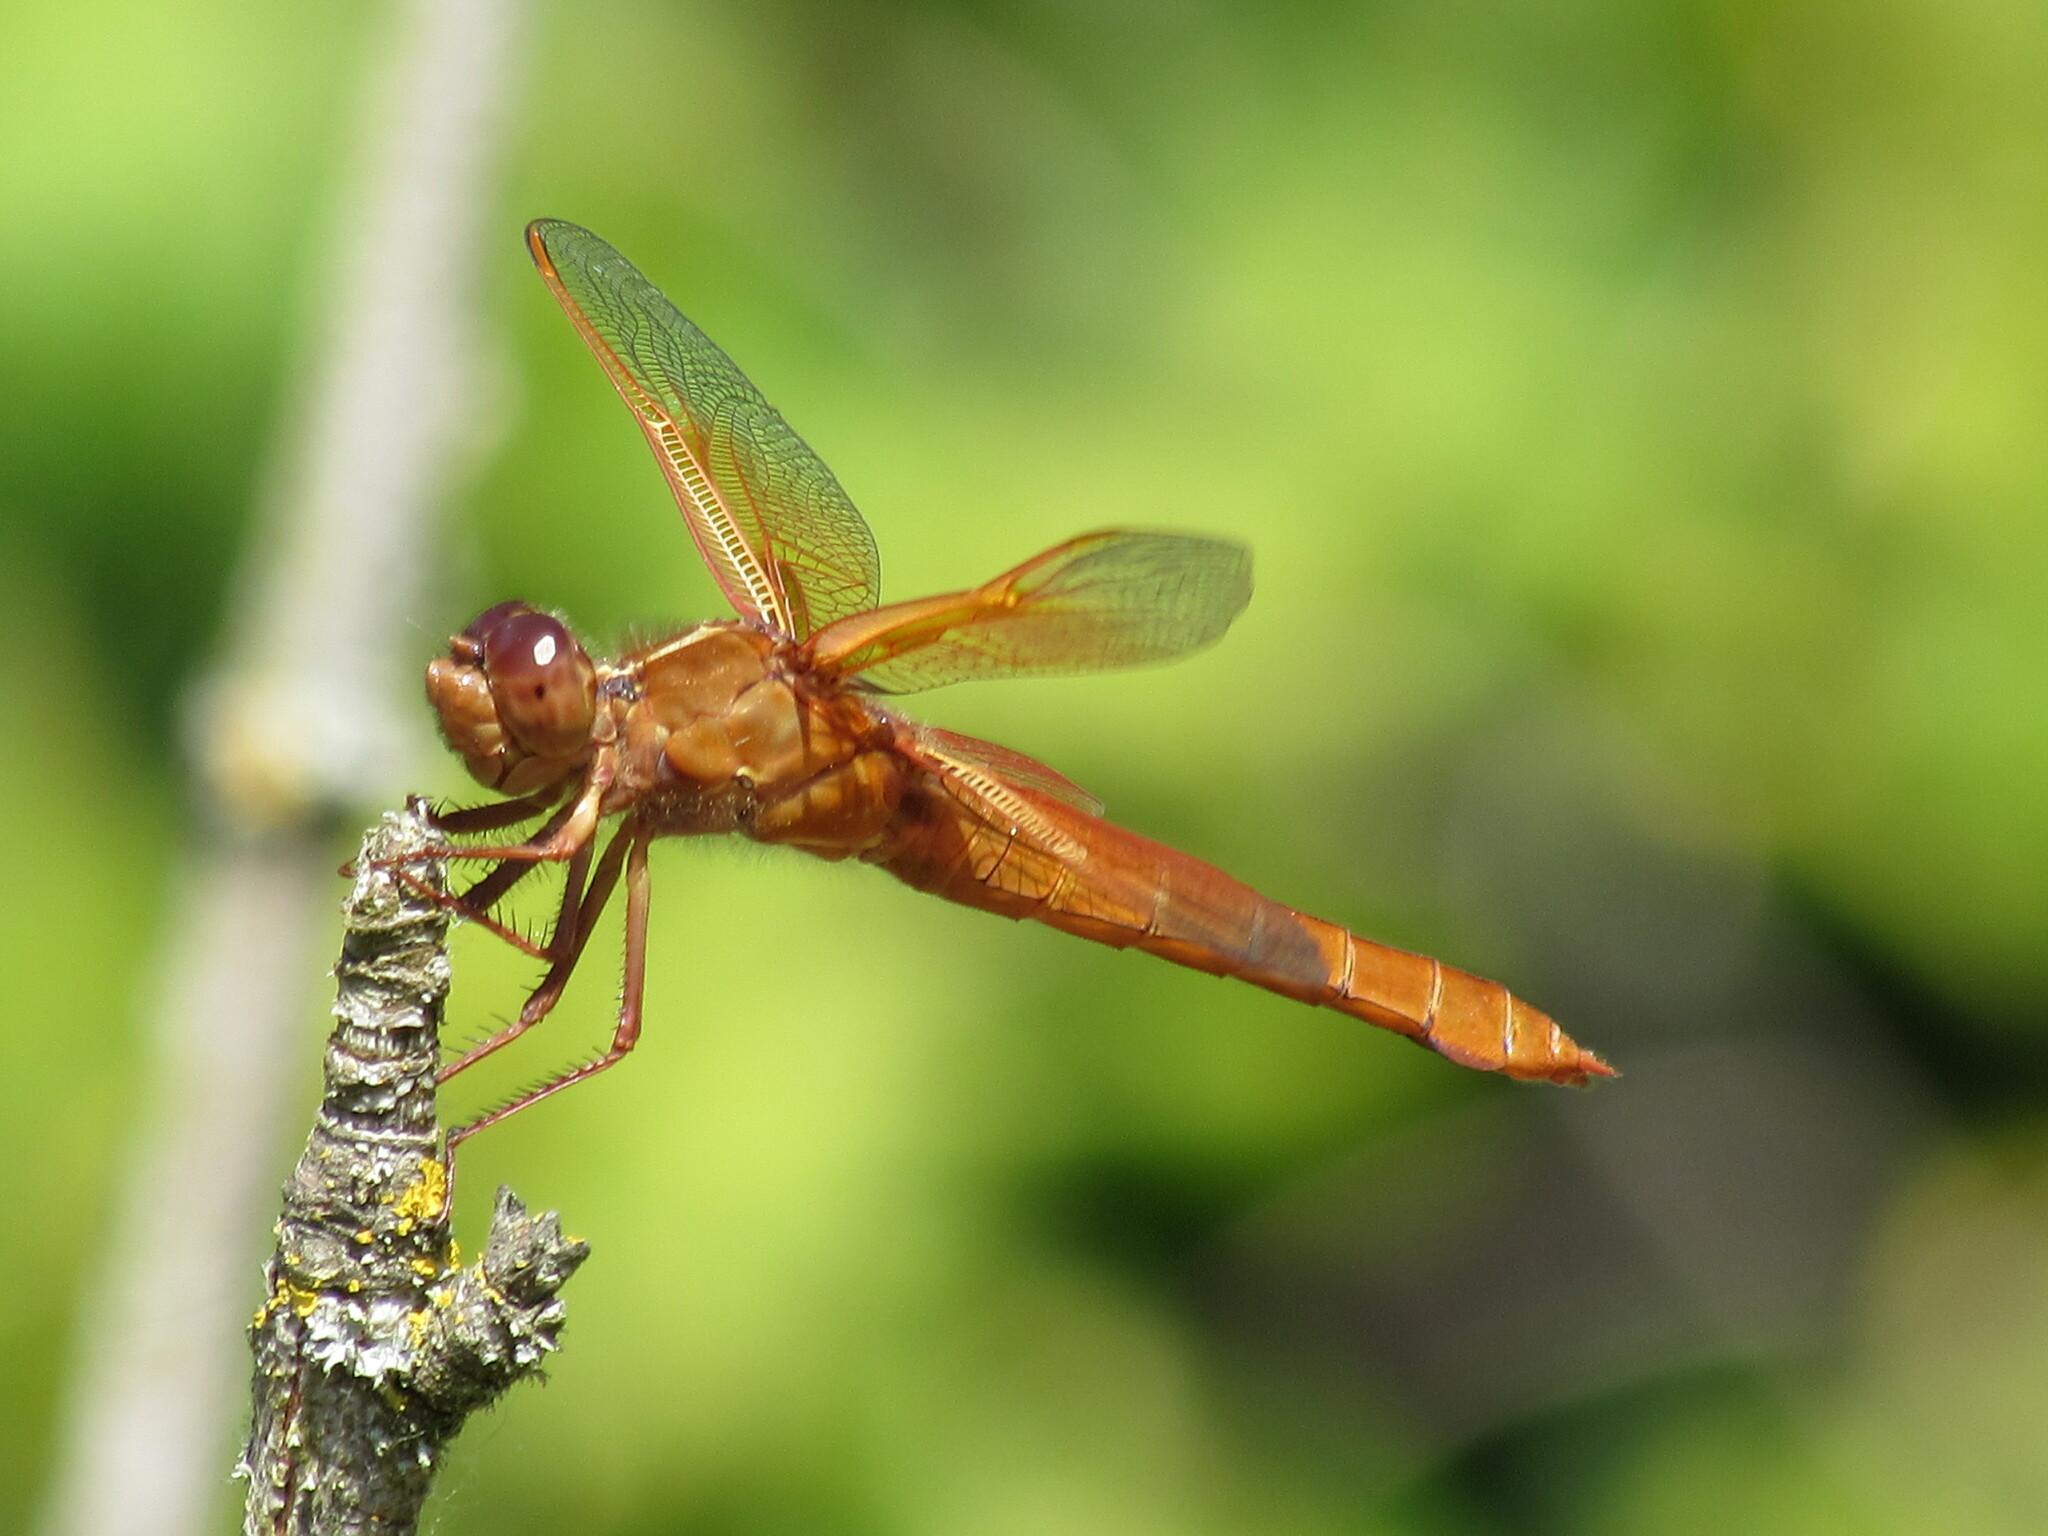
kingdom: Animalia
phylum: Arthropoda
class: Insecta
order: Odonata
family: Libellulidae
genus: Libellula
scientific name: Libellula saturata
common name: Flame skimmer
